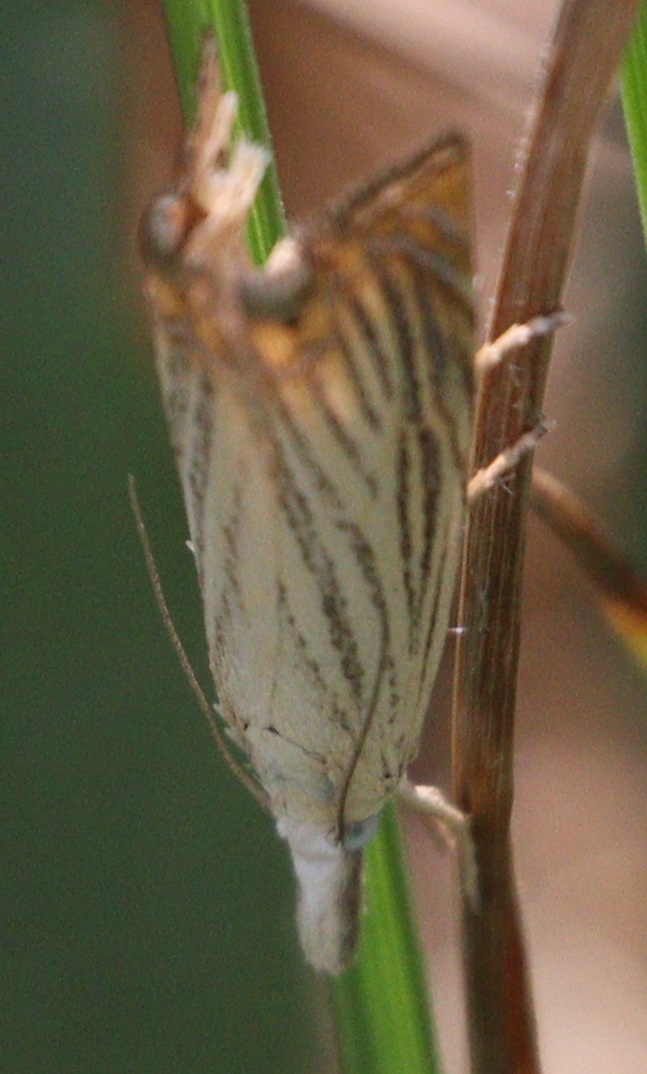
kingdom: Animalia
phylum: Arthropoda
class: Insecta
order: Lepidoptera
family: Crambidae
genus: Chrysoteuchia
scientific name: Chrysoteuchia culmella
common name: Garden grass-veneer
